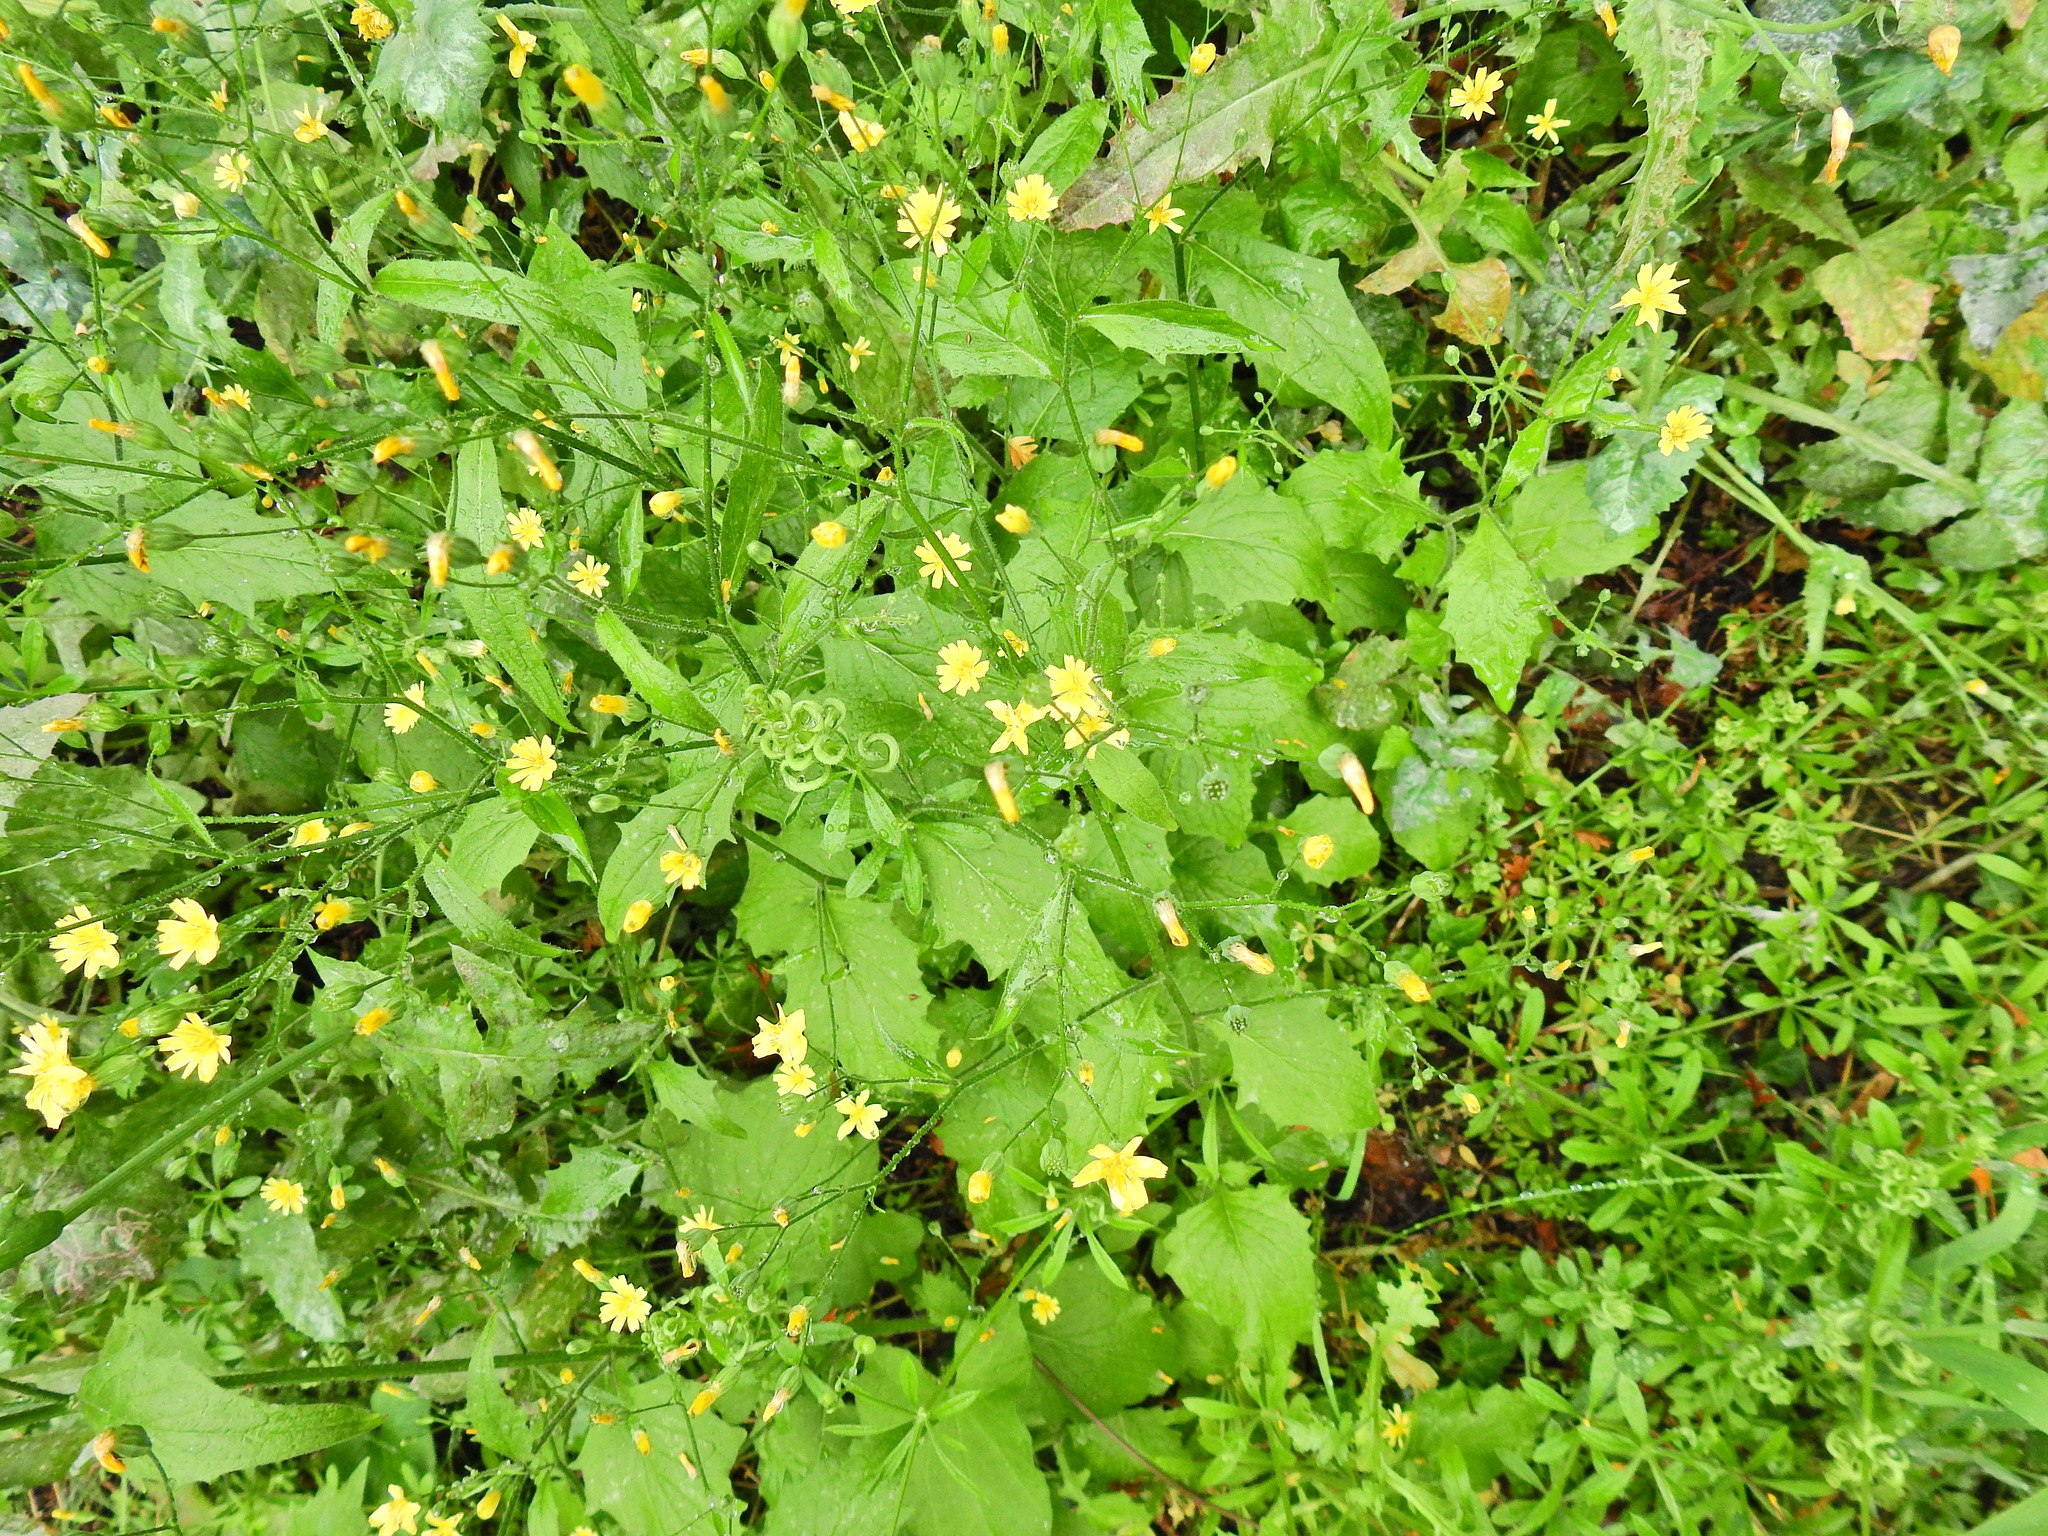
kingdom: Plantae
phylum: Tracheophyta
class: Magnoliopsida
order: Asterales
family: Asteraceae
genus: Lapsana
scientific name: Lapsana communis
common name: Nipplewort
